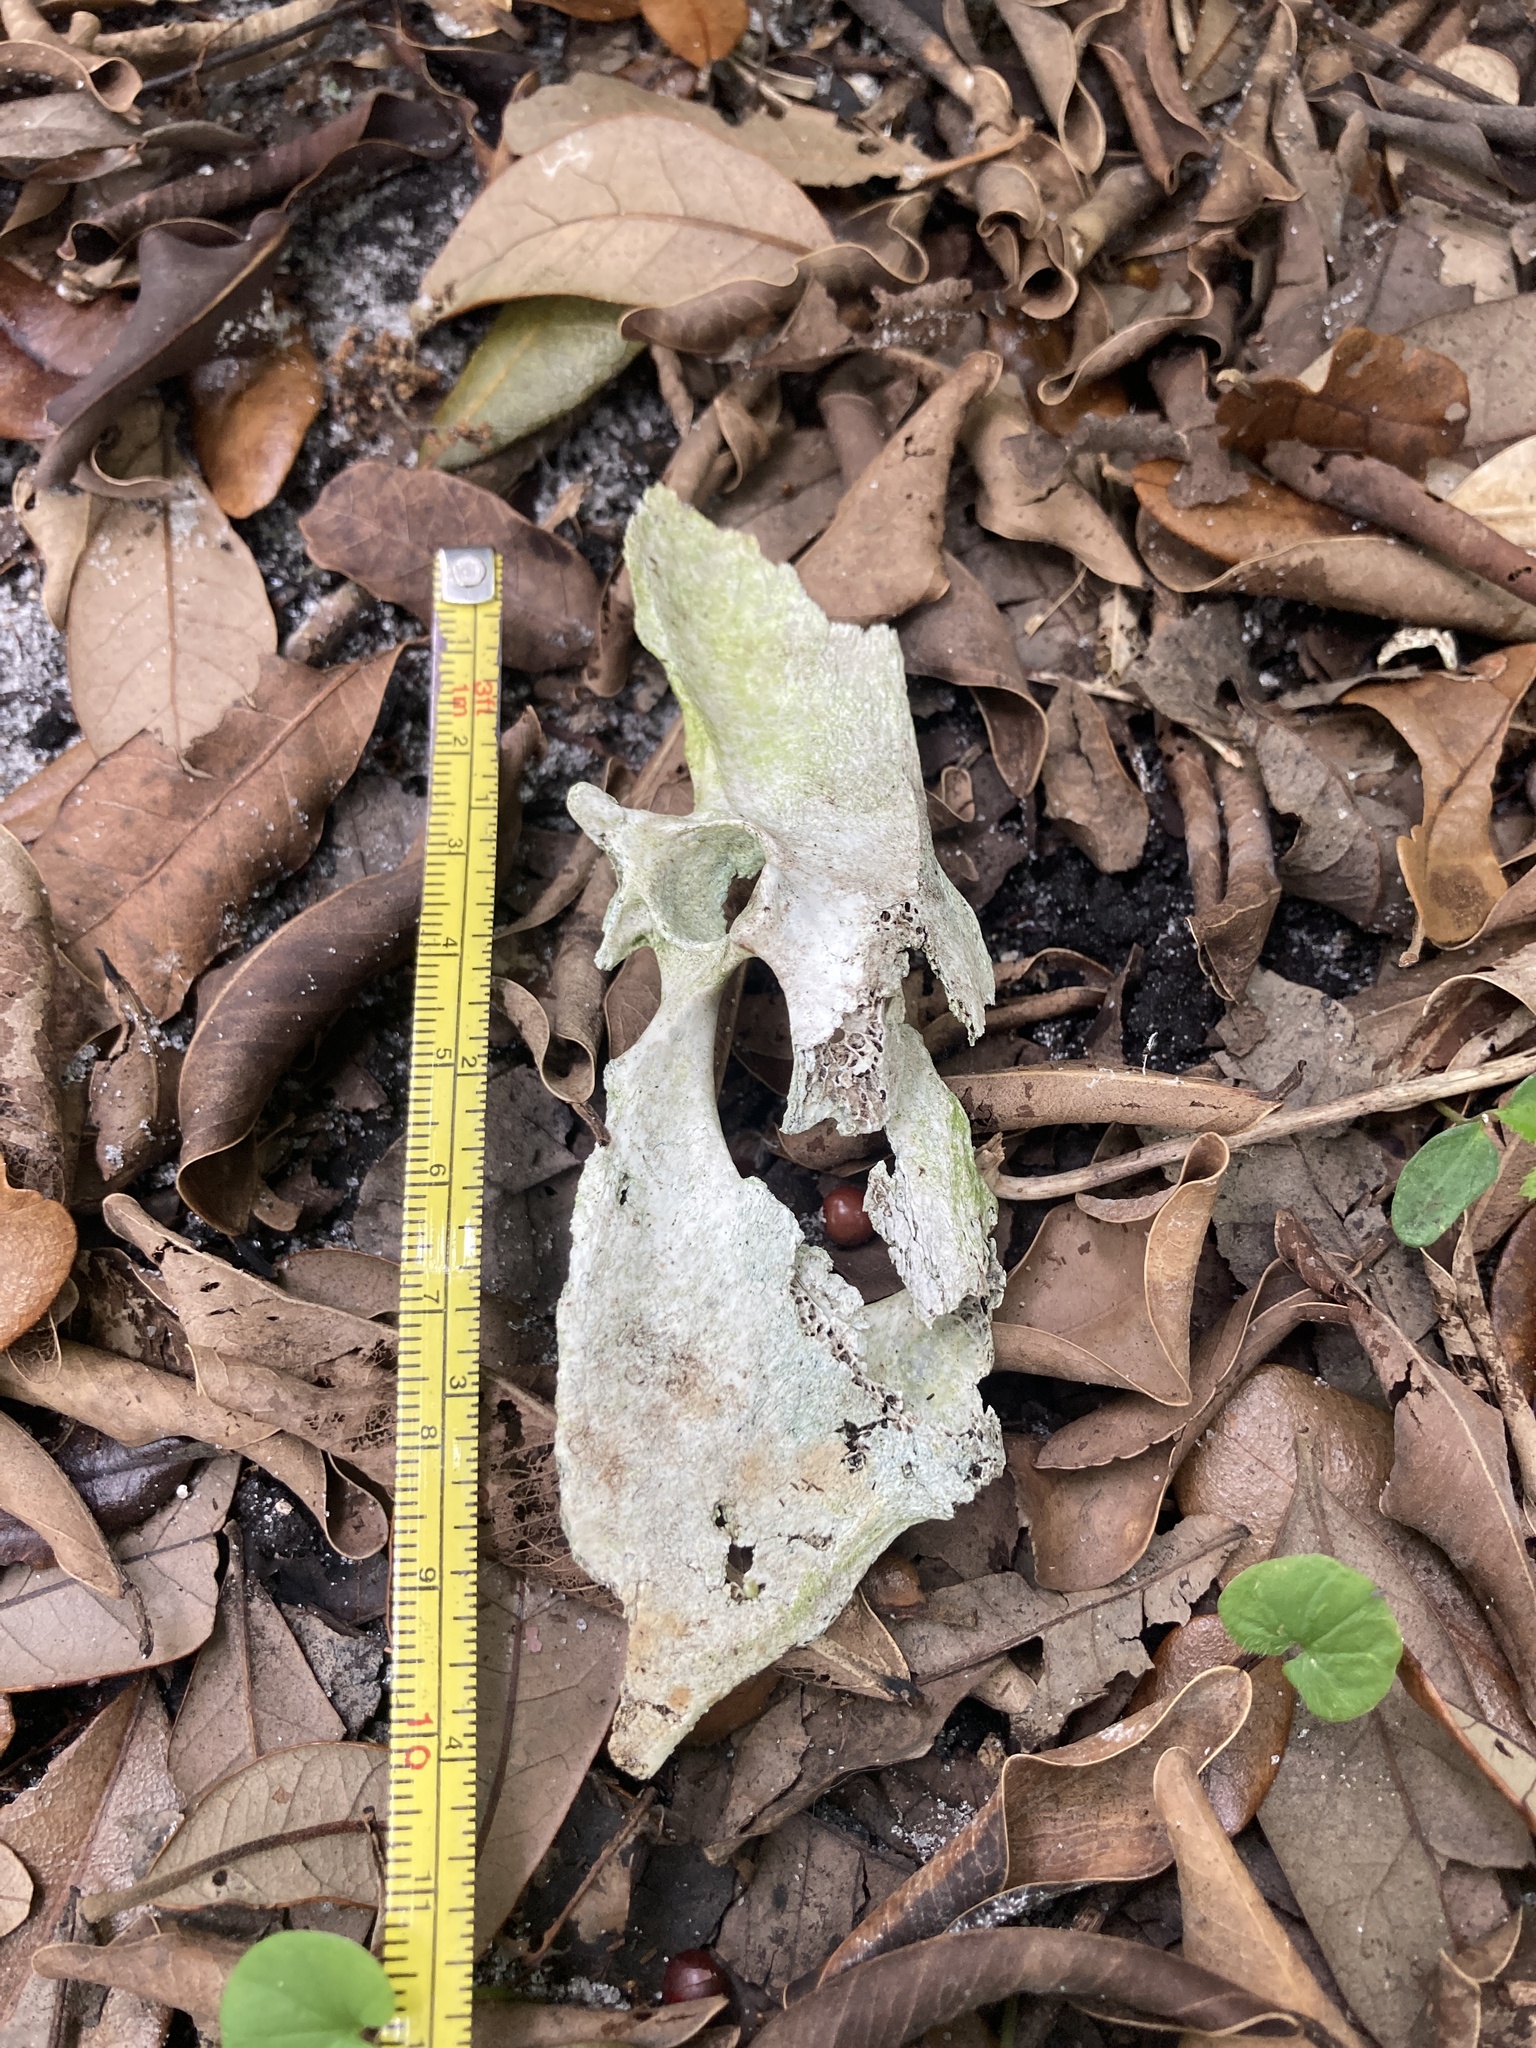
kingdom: Animalia
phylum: Chordata
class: Aves
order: Galliformes
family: Phasianidae
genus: Gallus
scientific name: Gallus gallus
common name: Red junglefowl
